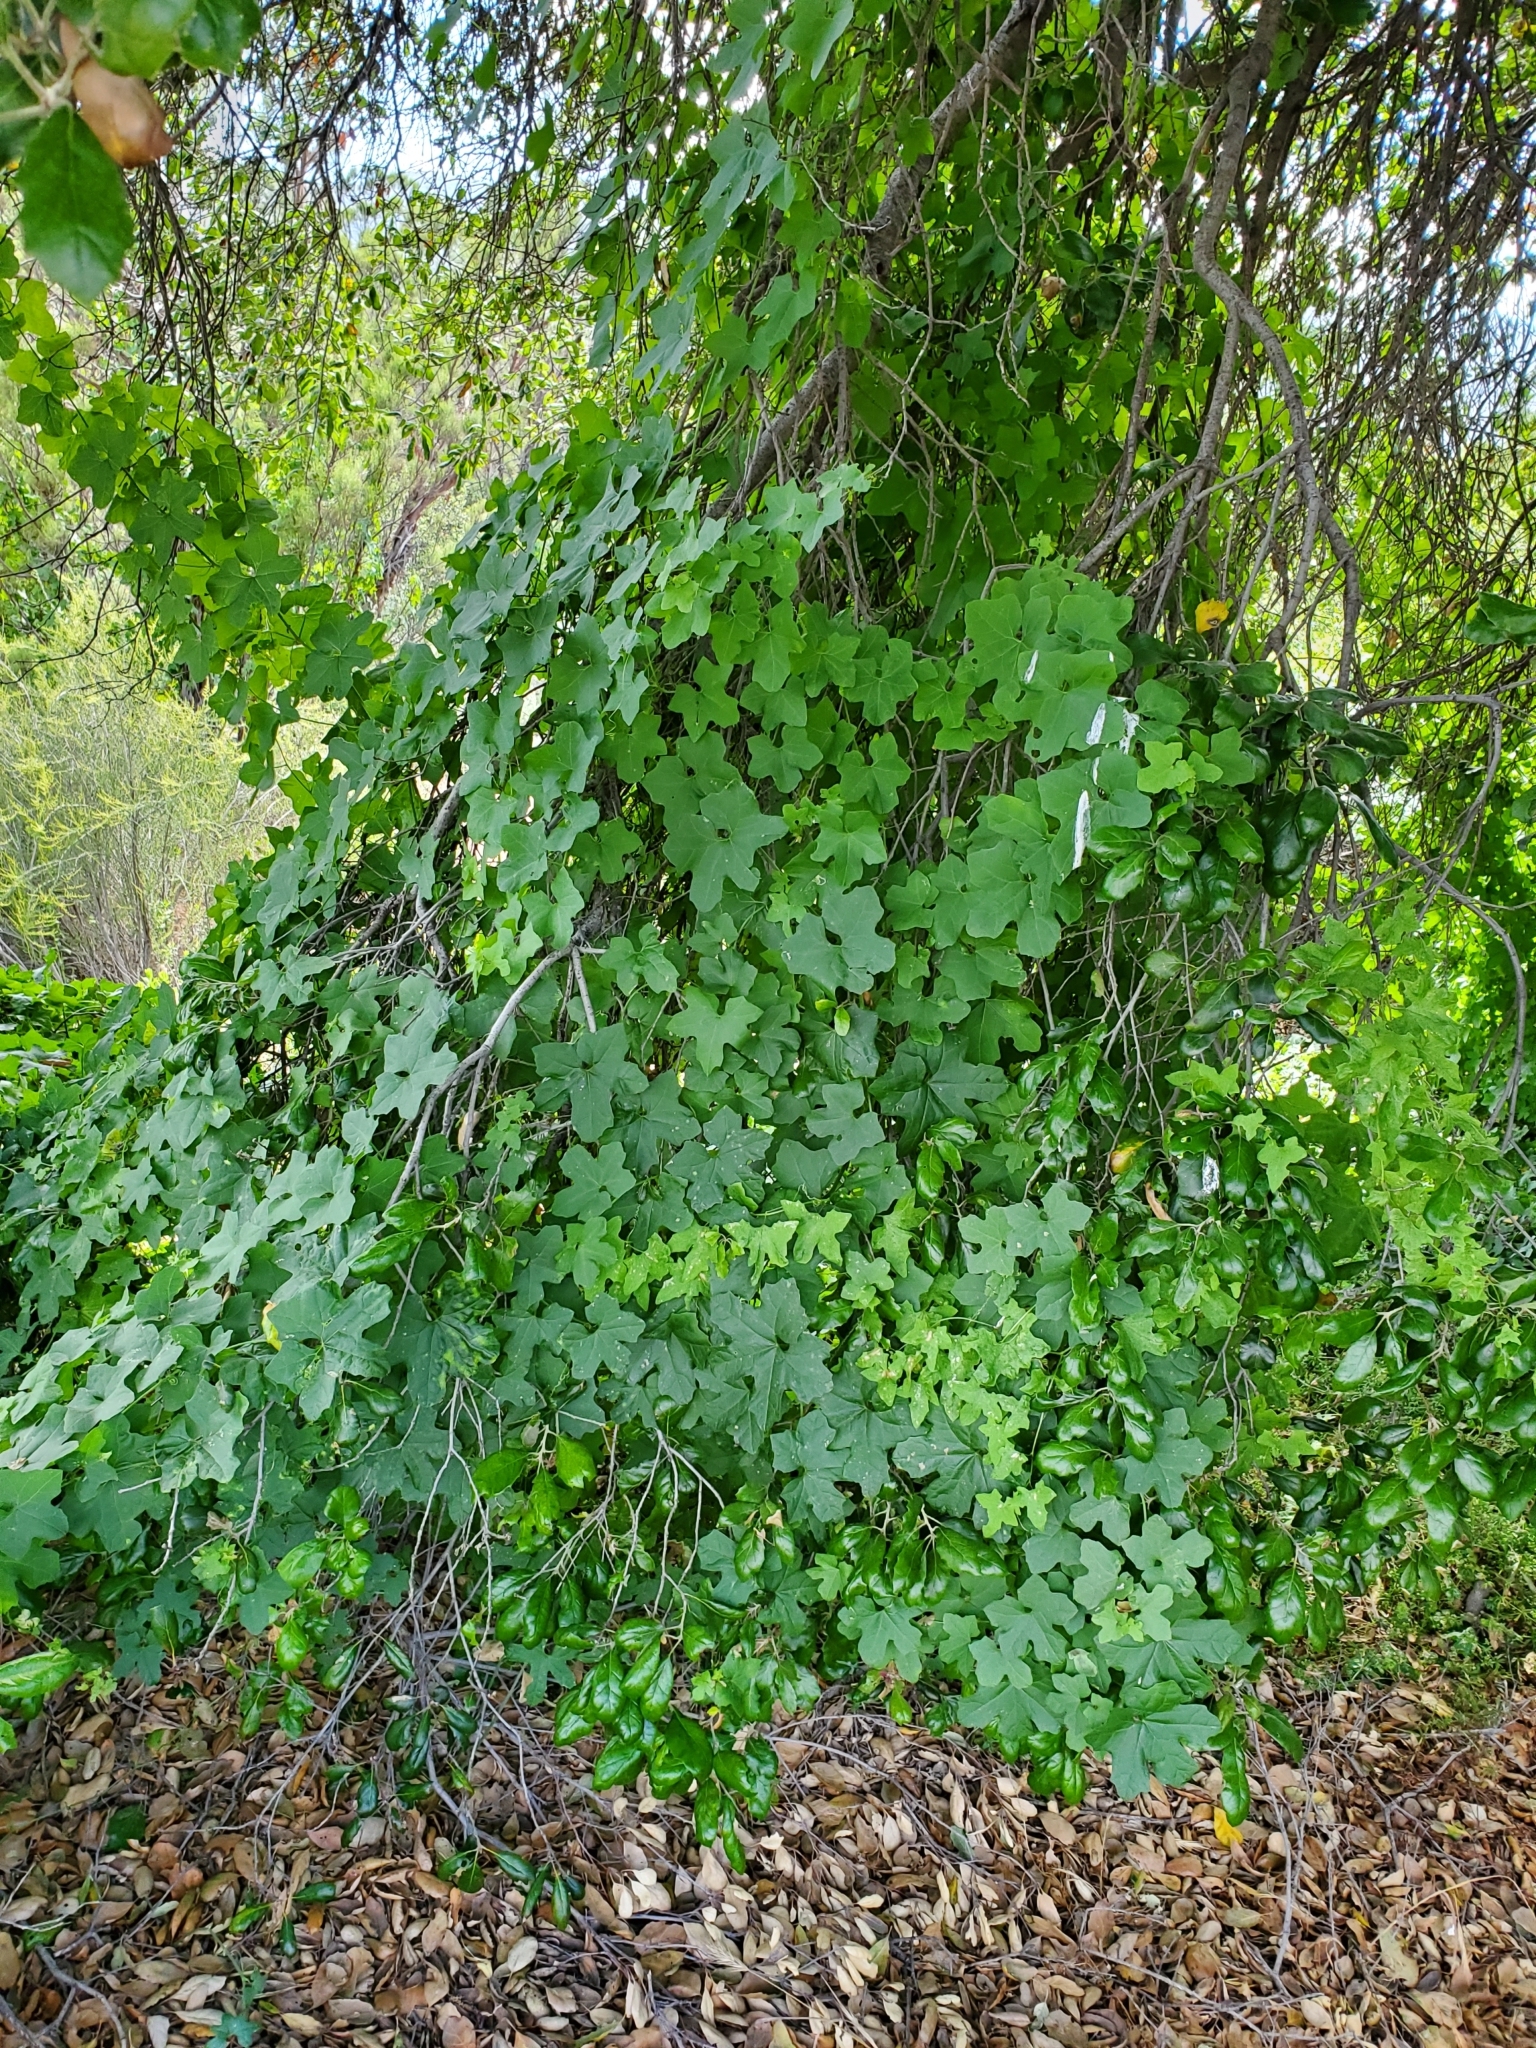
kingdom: Plantae
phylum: Tracheophyta
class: Magnoliopsida
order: Cucurbitales
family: Cucurbitaceae
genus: Marah
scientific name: Marah macrocarpa
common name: Cucamonga manroot
